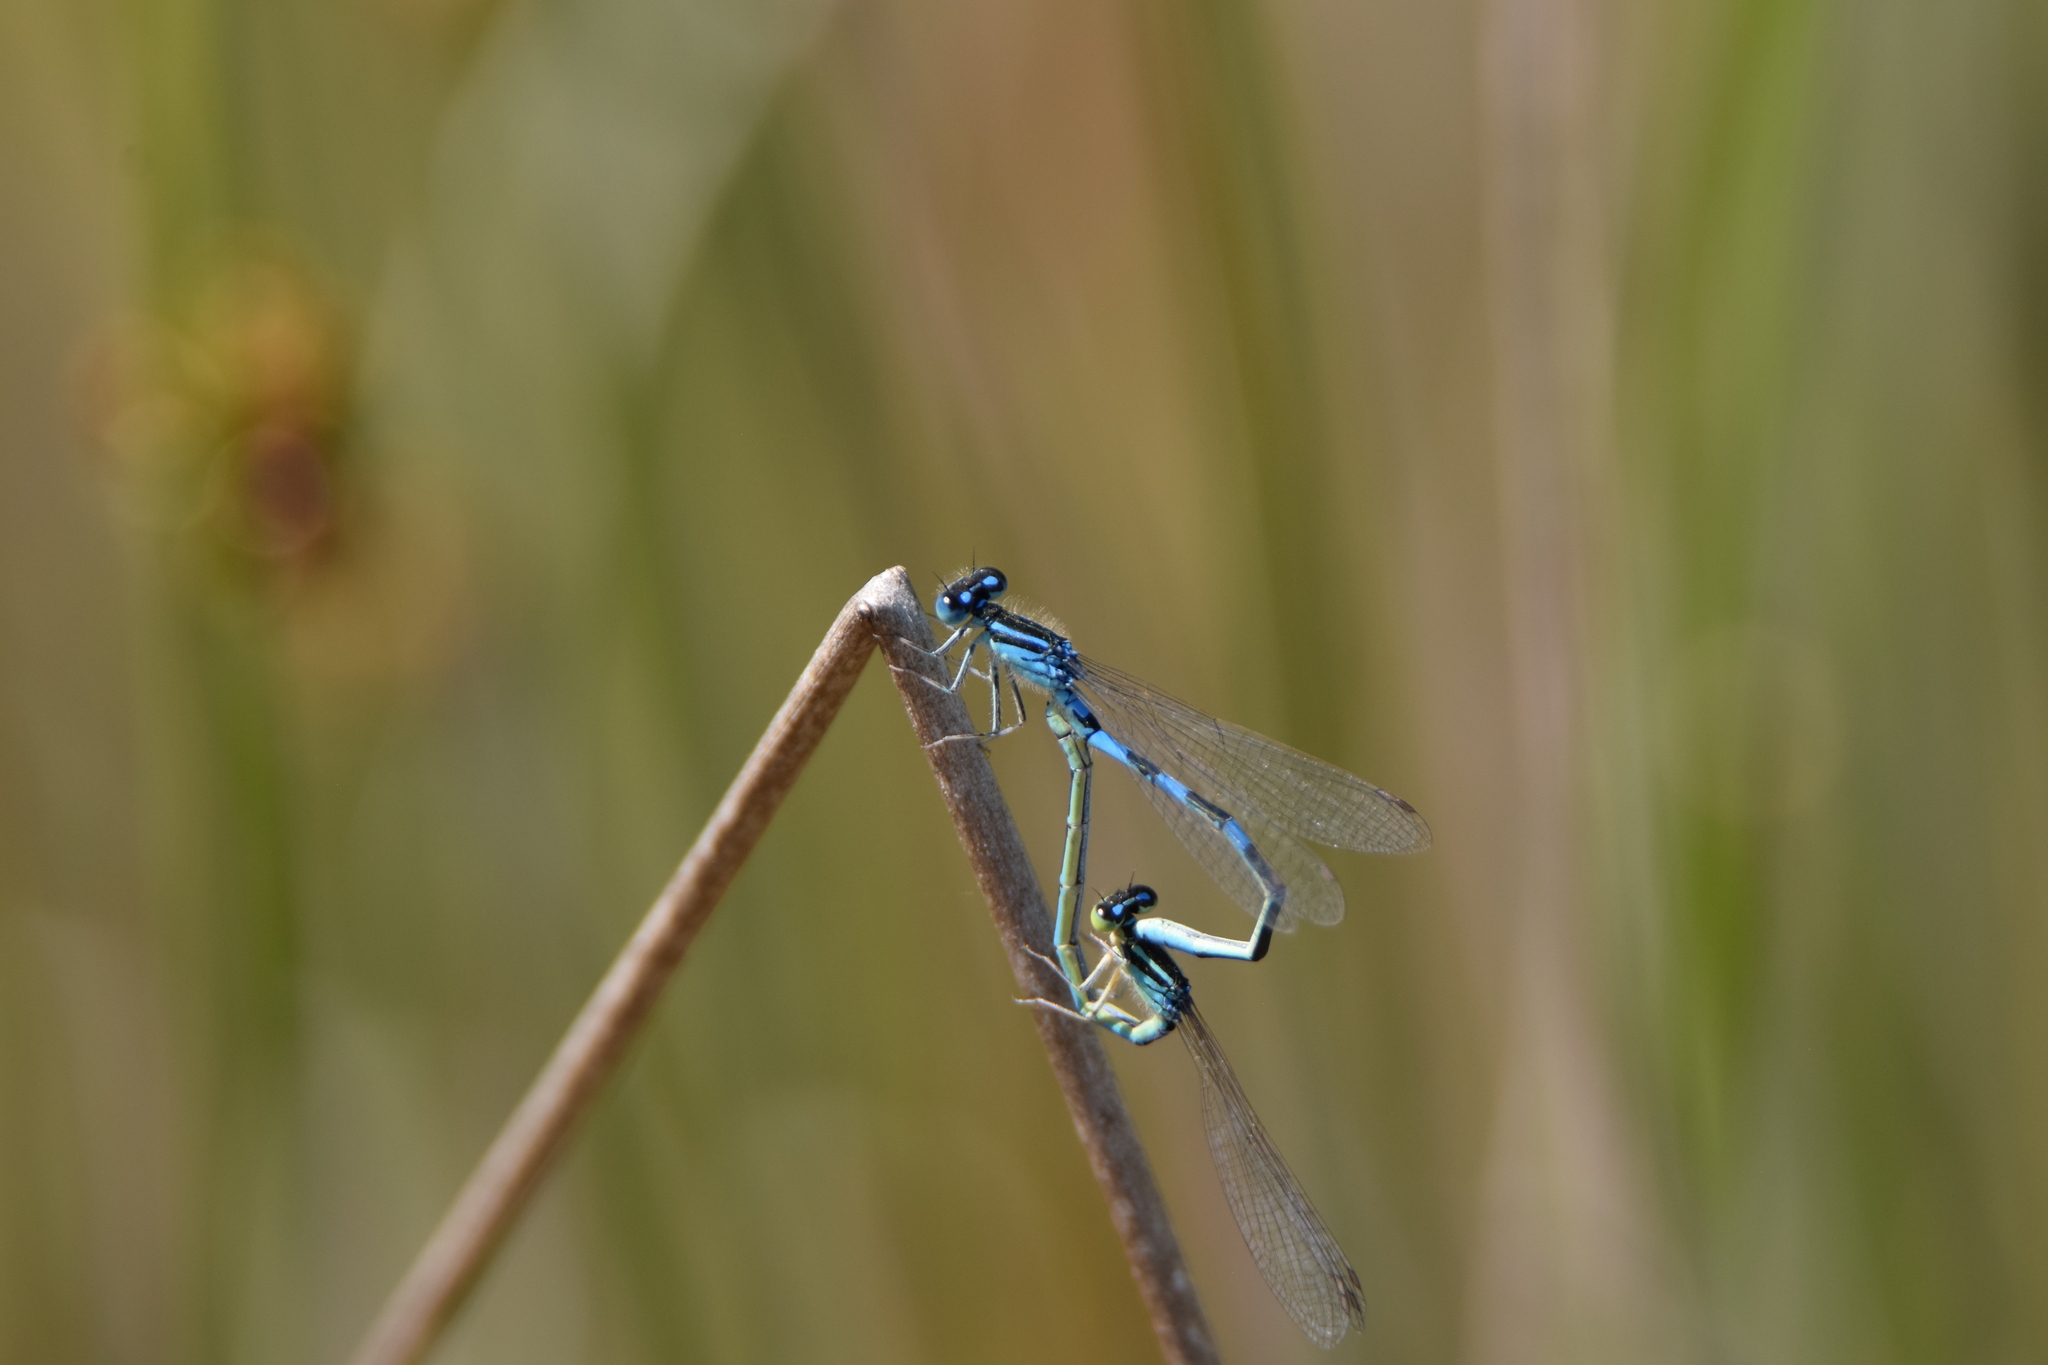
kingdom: Animalia
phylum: Arthropoda
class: Insecta
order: Odonata
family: Coenagrionidae
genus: Coenagrion
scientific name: Coenagrion scitulum
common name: Dainty bluet
